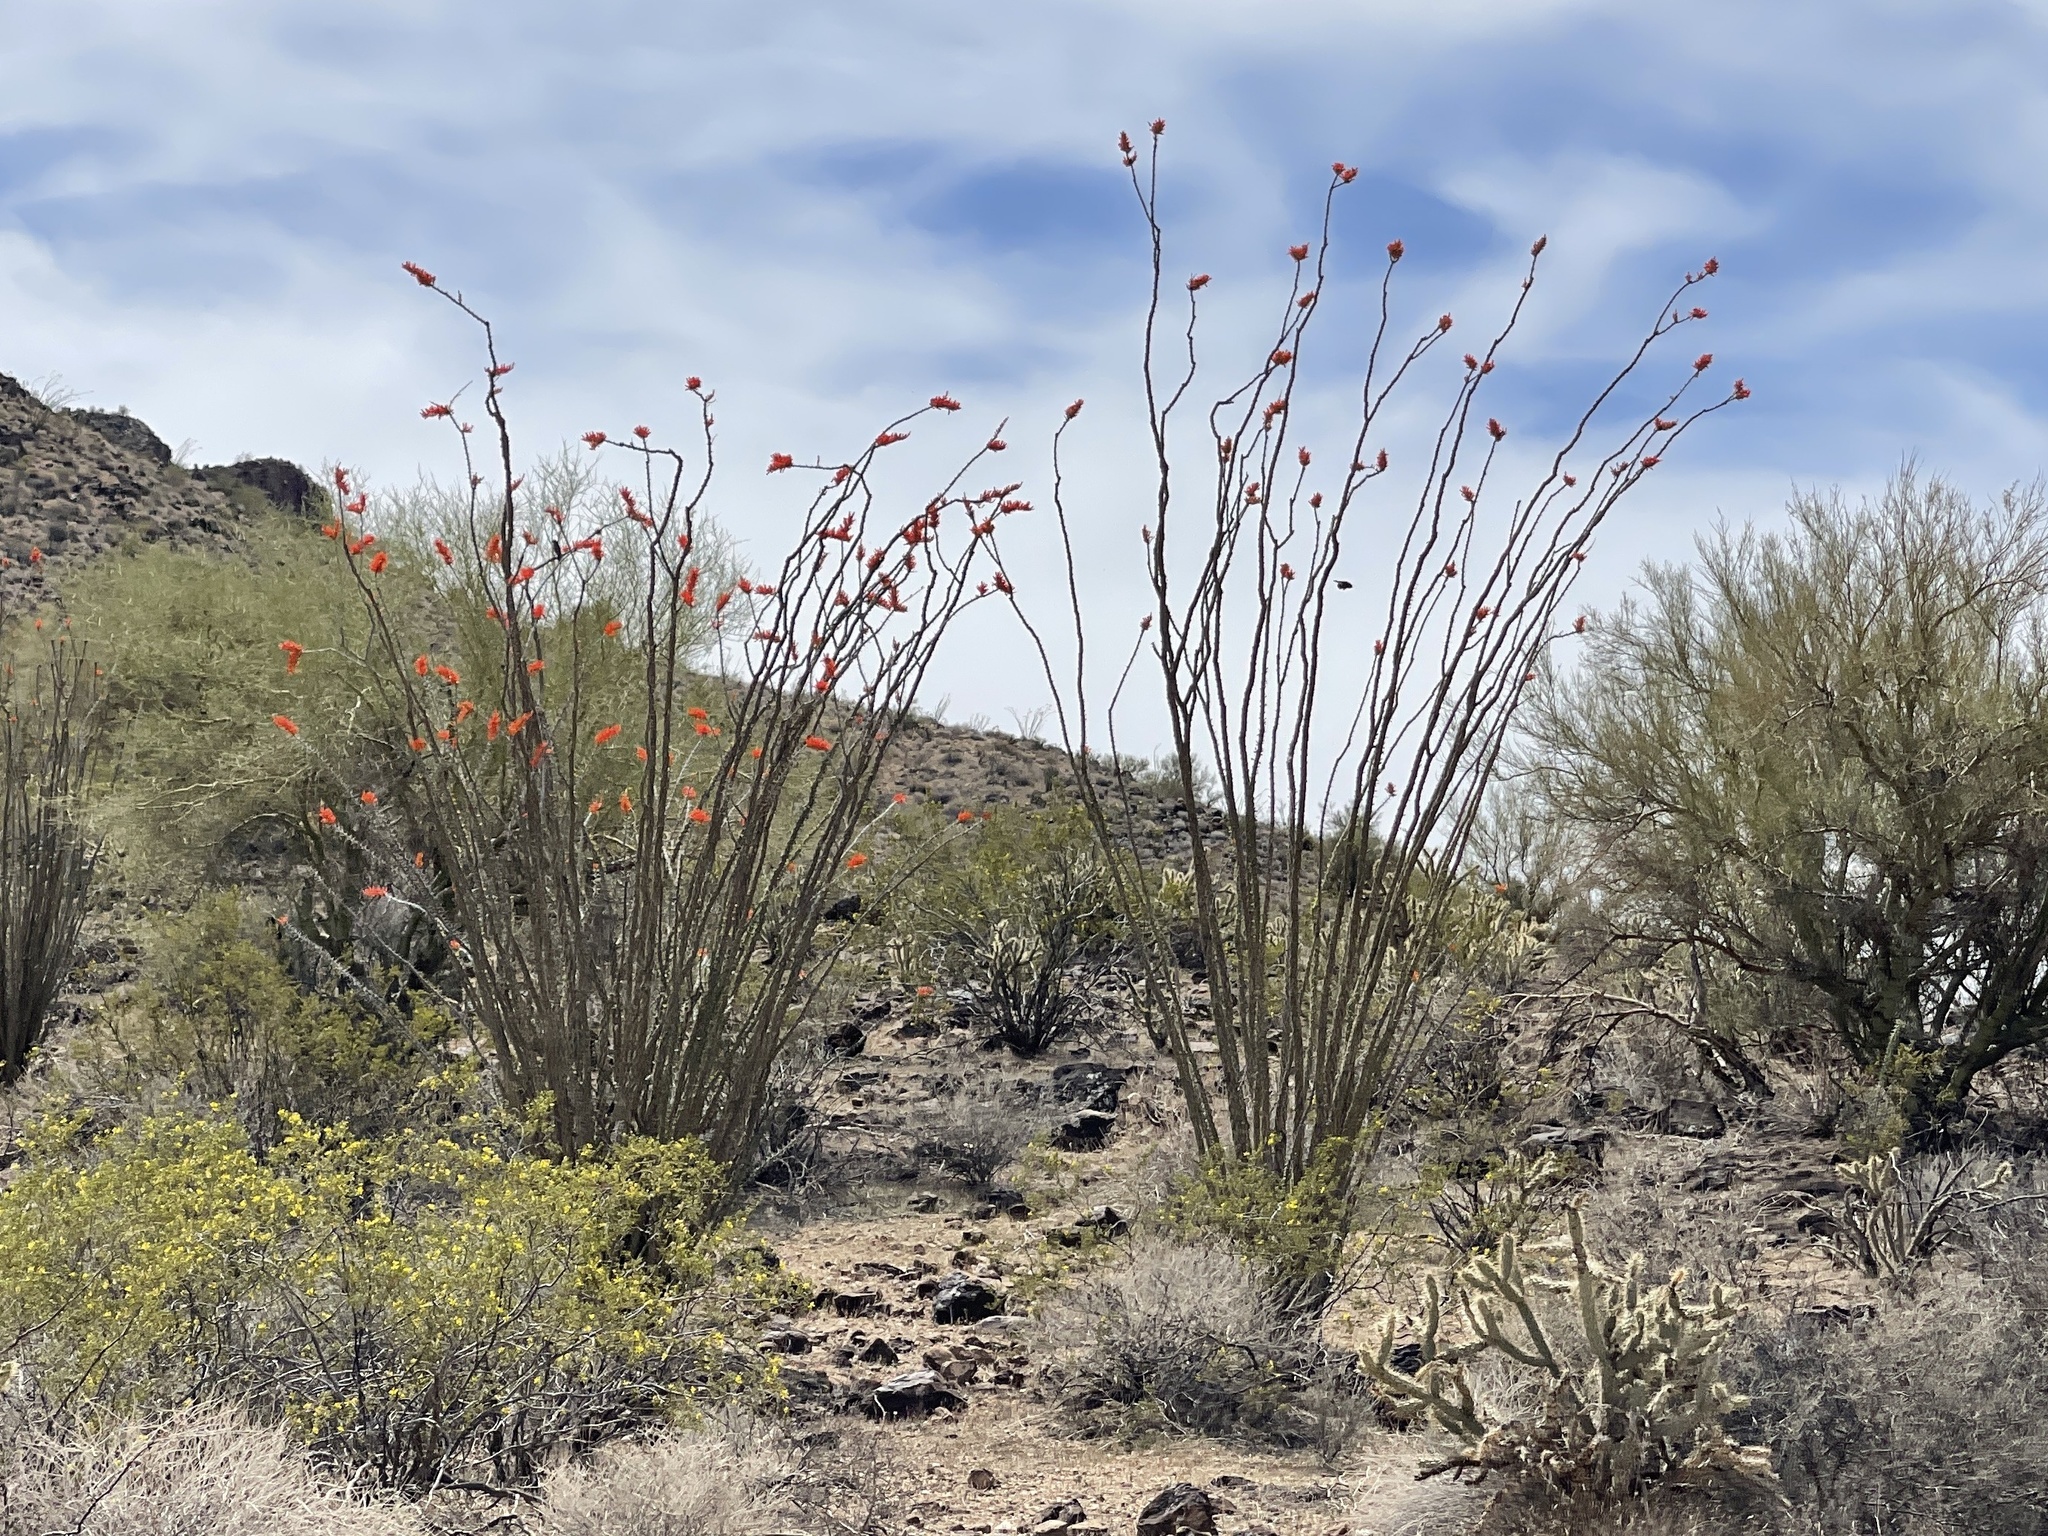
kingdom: Plantae
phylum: Tracheophyta
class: Magnoliopsida
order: Ericales
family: Fouquieriaceae
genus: Fouquieria
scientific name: Fouquieria splendens
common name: Vine-cactus
